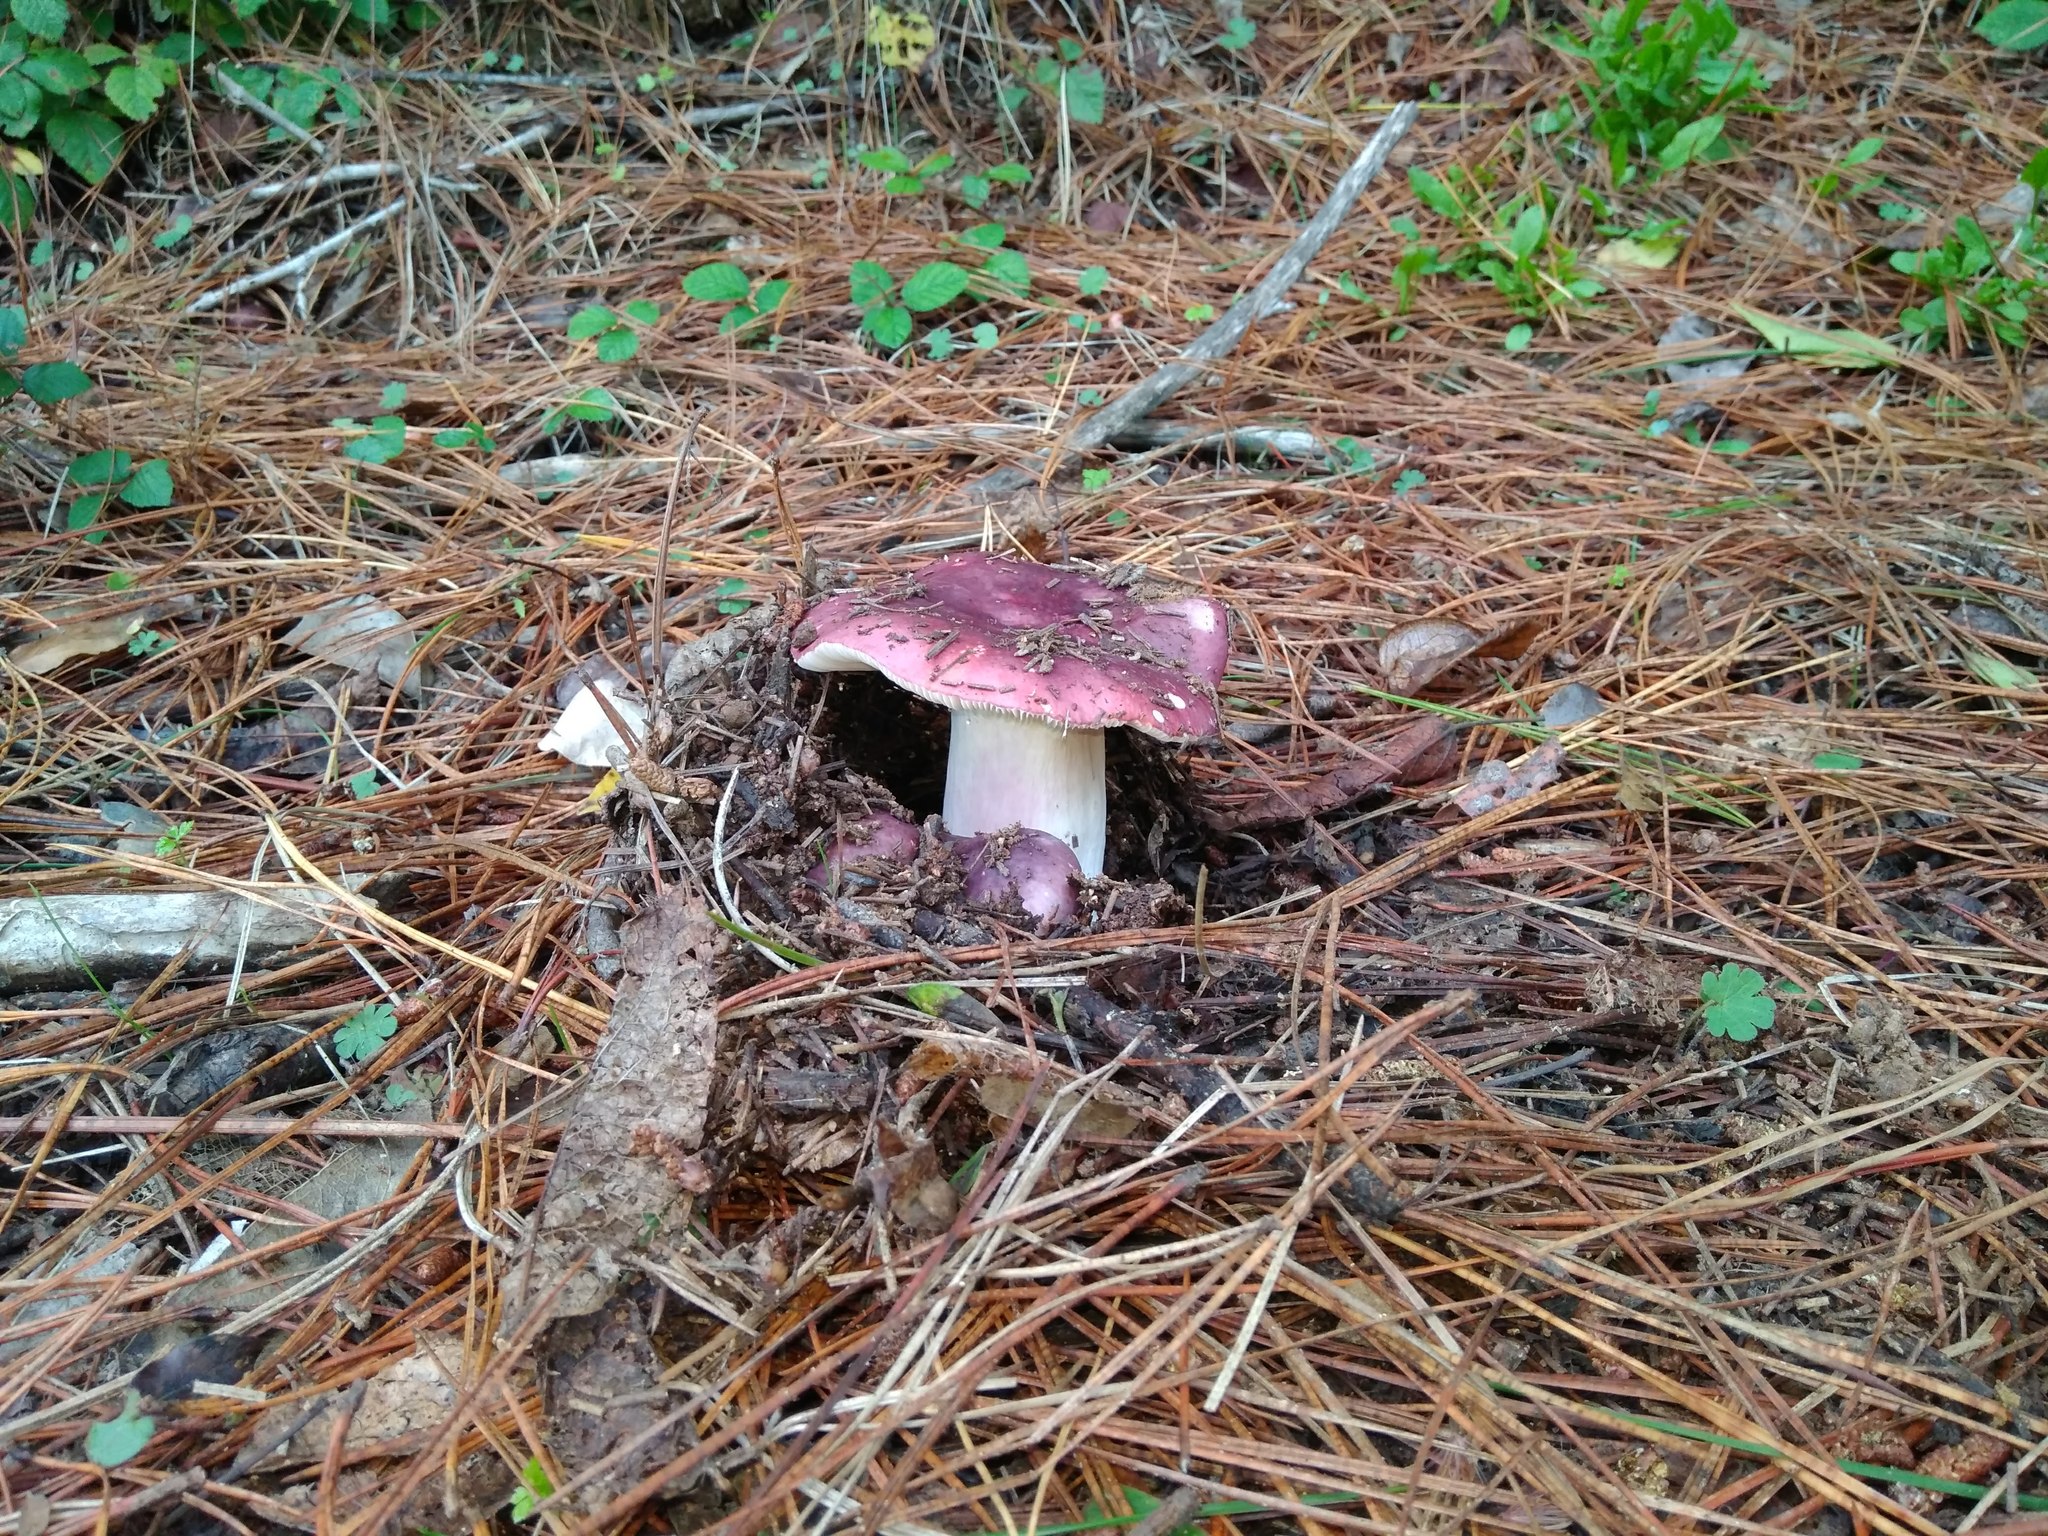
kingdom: Fungi
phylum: Basidiomycota
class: Agaricomycetes
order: Russulales
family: Russulaceae
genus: Russula
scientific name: Russula sardonia
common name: Primrose brittlegill
